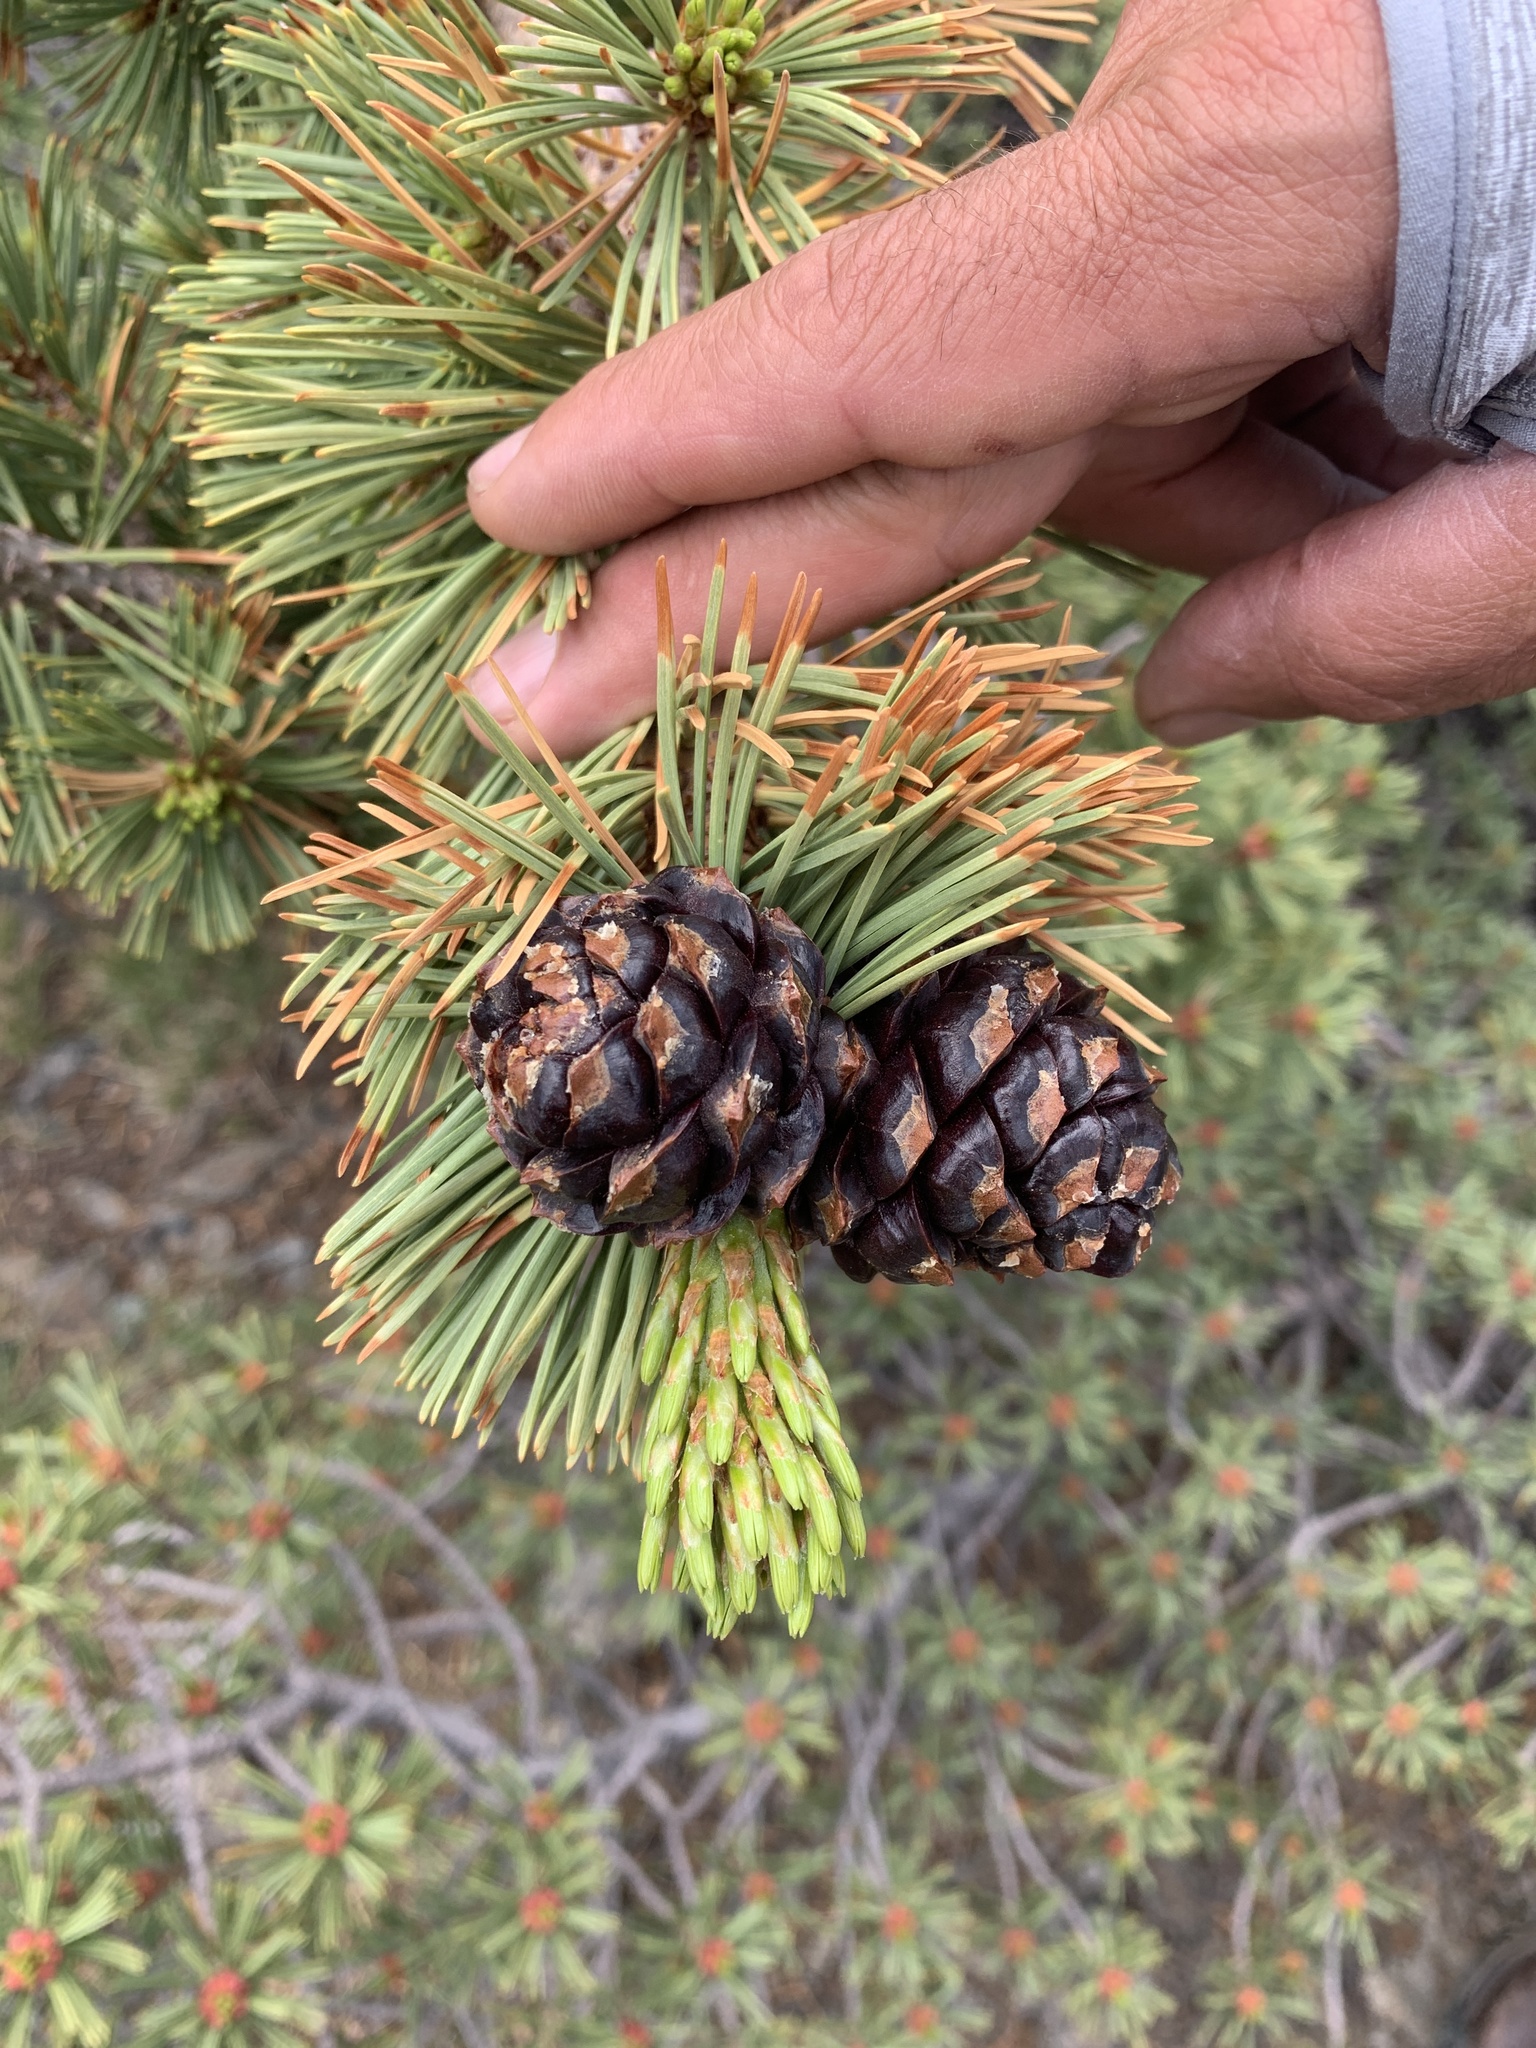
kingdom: Plantae
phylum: Tracheophyta
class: Pinopsida
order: Pinales
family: Pinaceae
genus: Pinus
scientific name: Pinus albicaulis
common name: Whitebark pine
